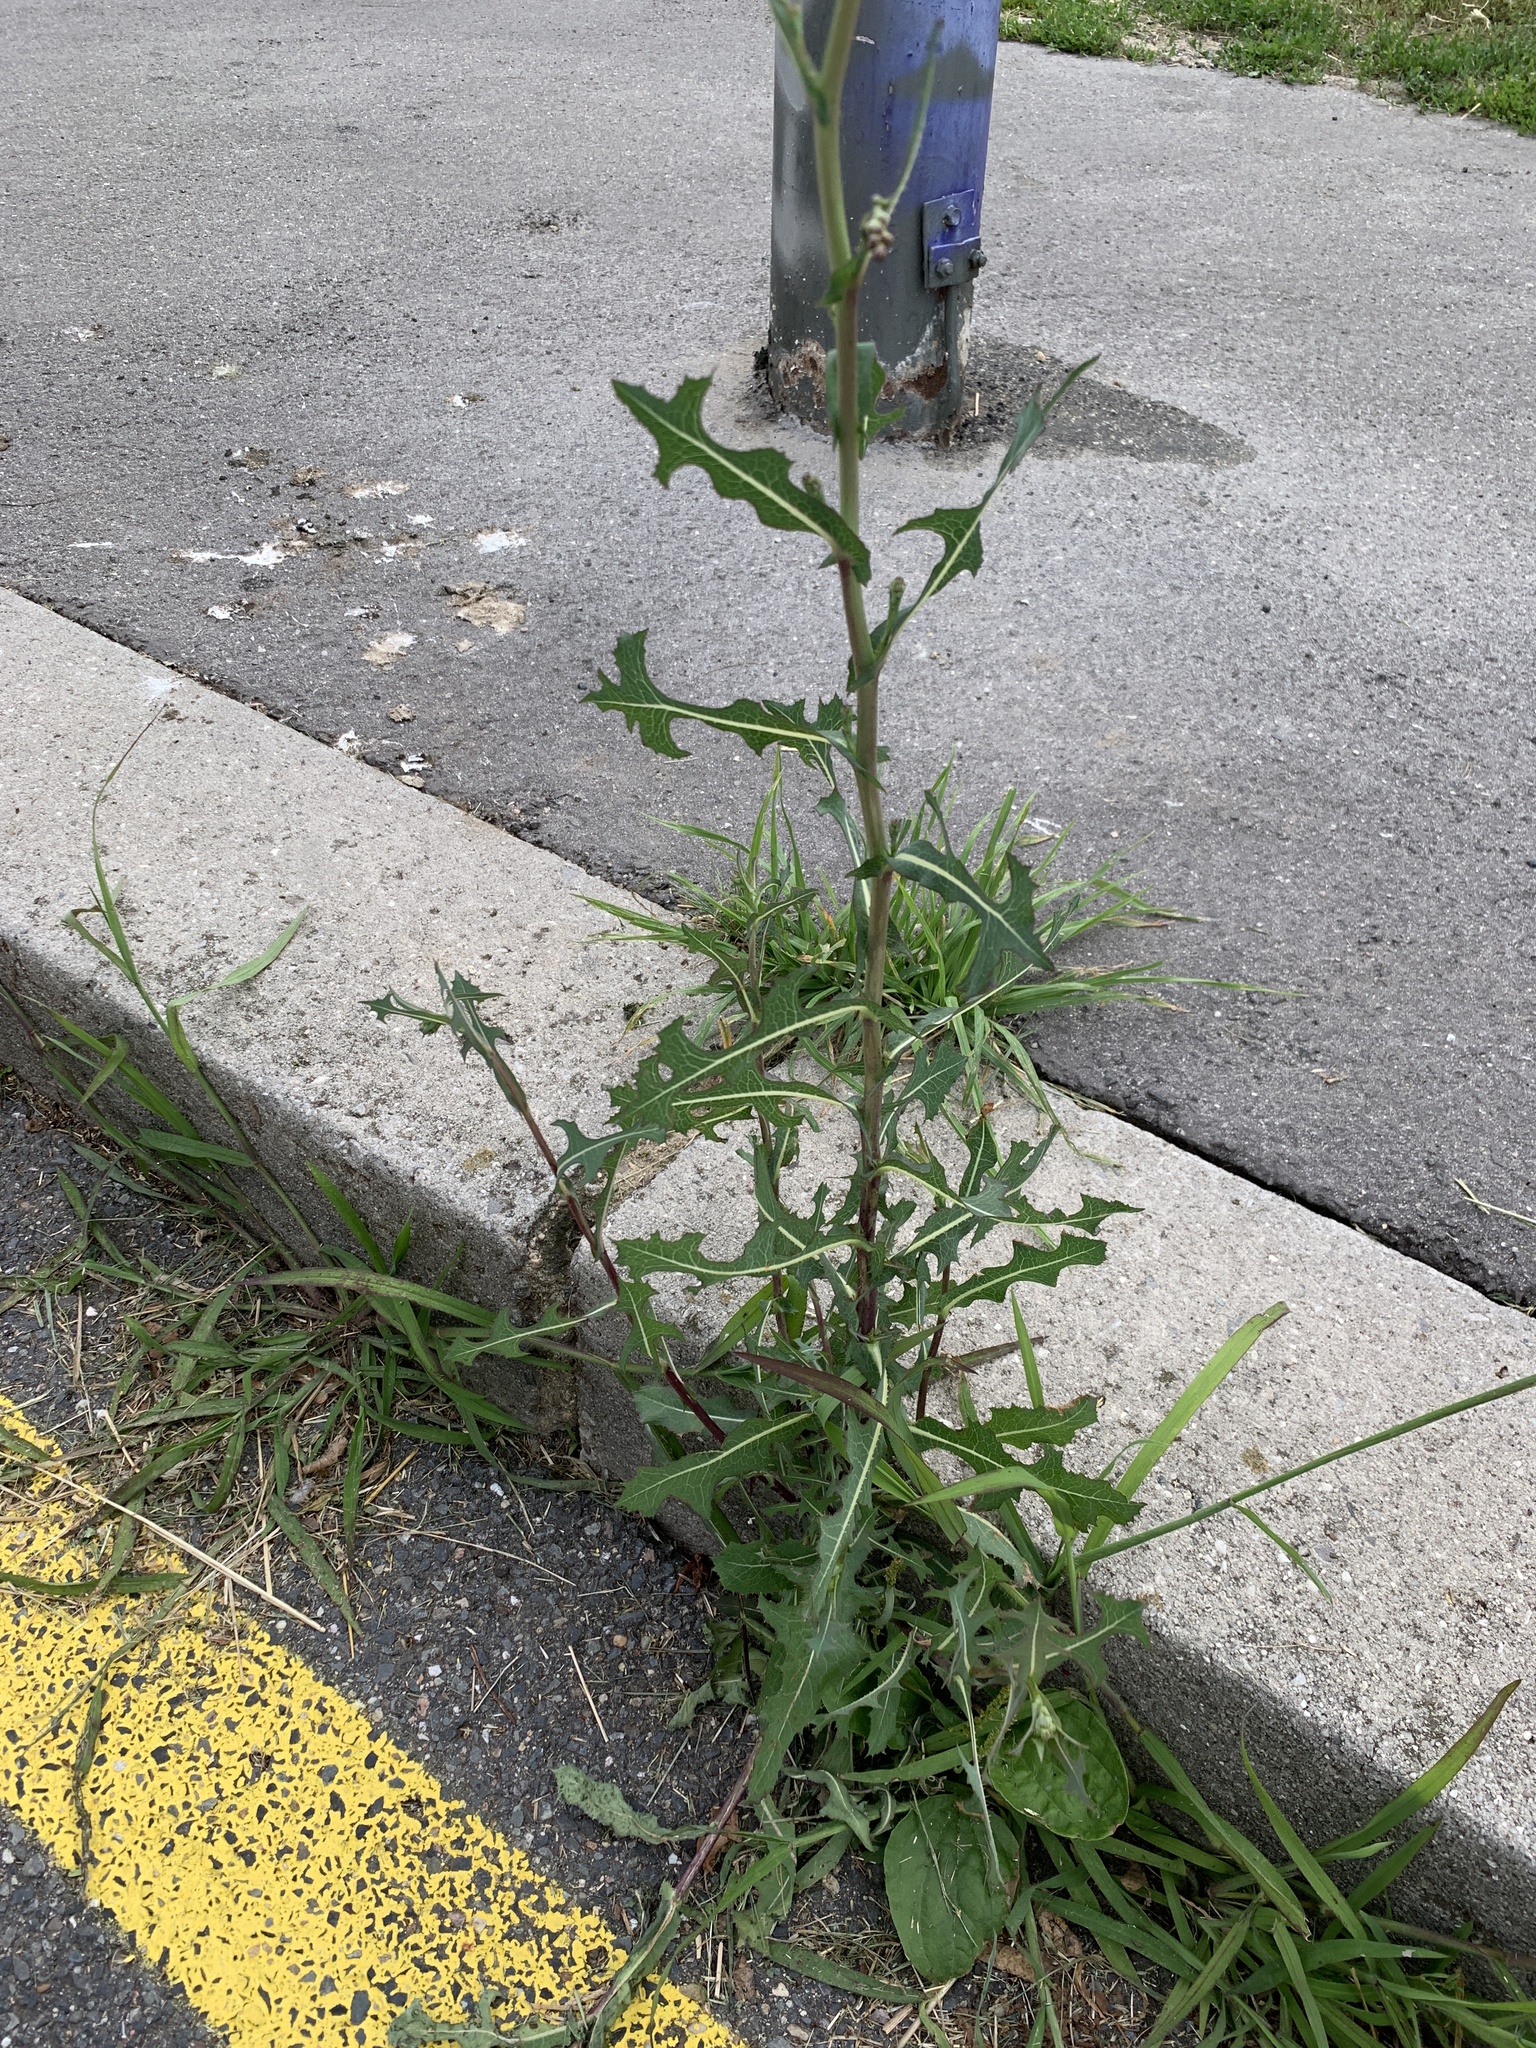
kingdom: Plantae
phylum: Tracheophyta
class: Magnoliopsida
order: Asterales
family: Asteraceae
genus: Lactuca
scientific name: Lactuca serriola
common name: Prickly lettuce
